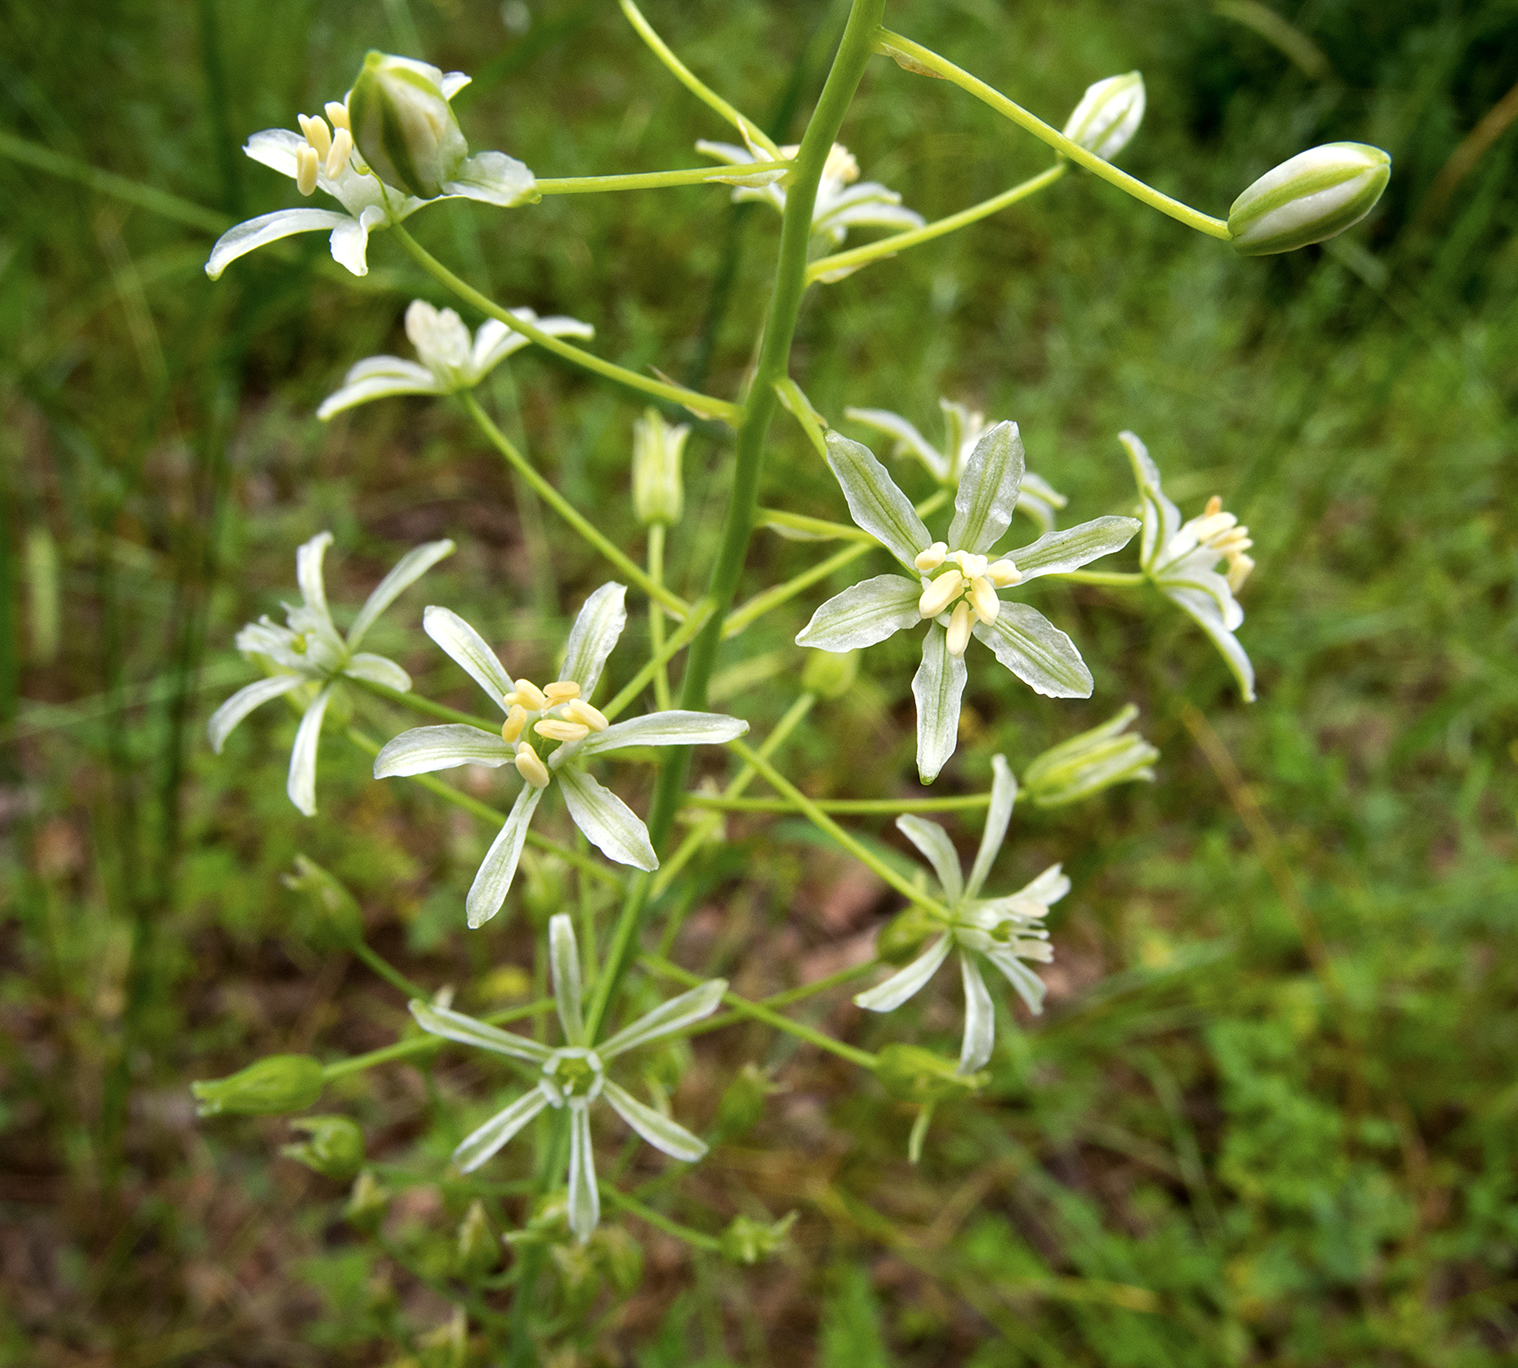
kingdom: Plantae
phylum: Tracheophyta
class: Liliopsida
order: Asparagales
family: Asparagaceae
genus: Ornithogalum
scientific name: Ornithogalum sphaerocarpum
